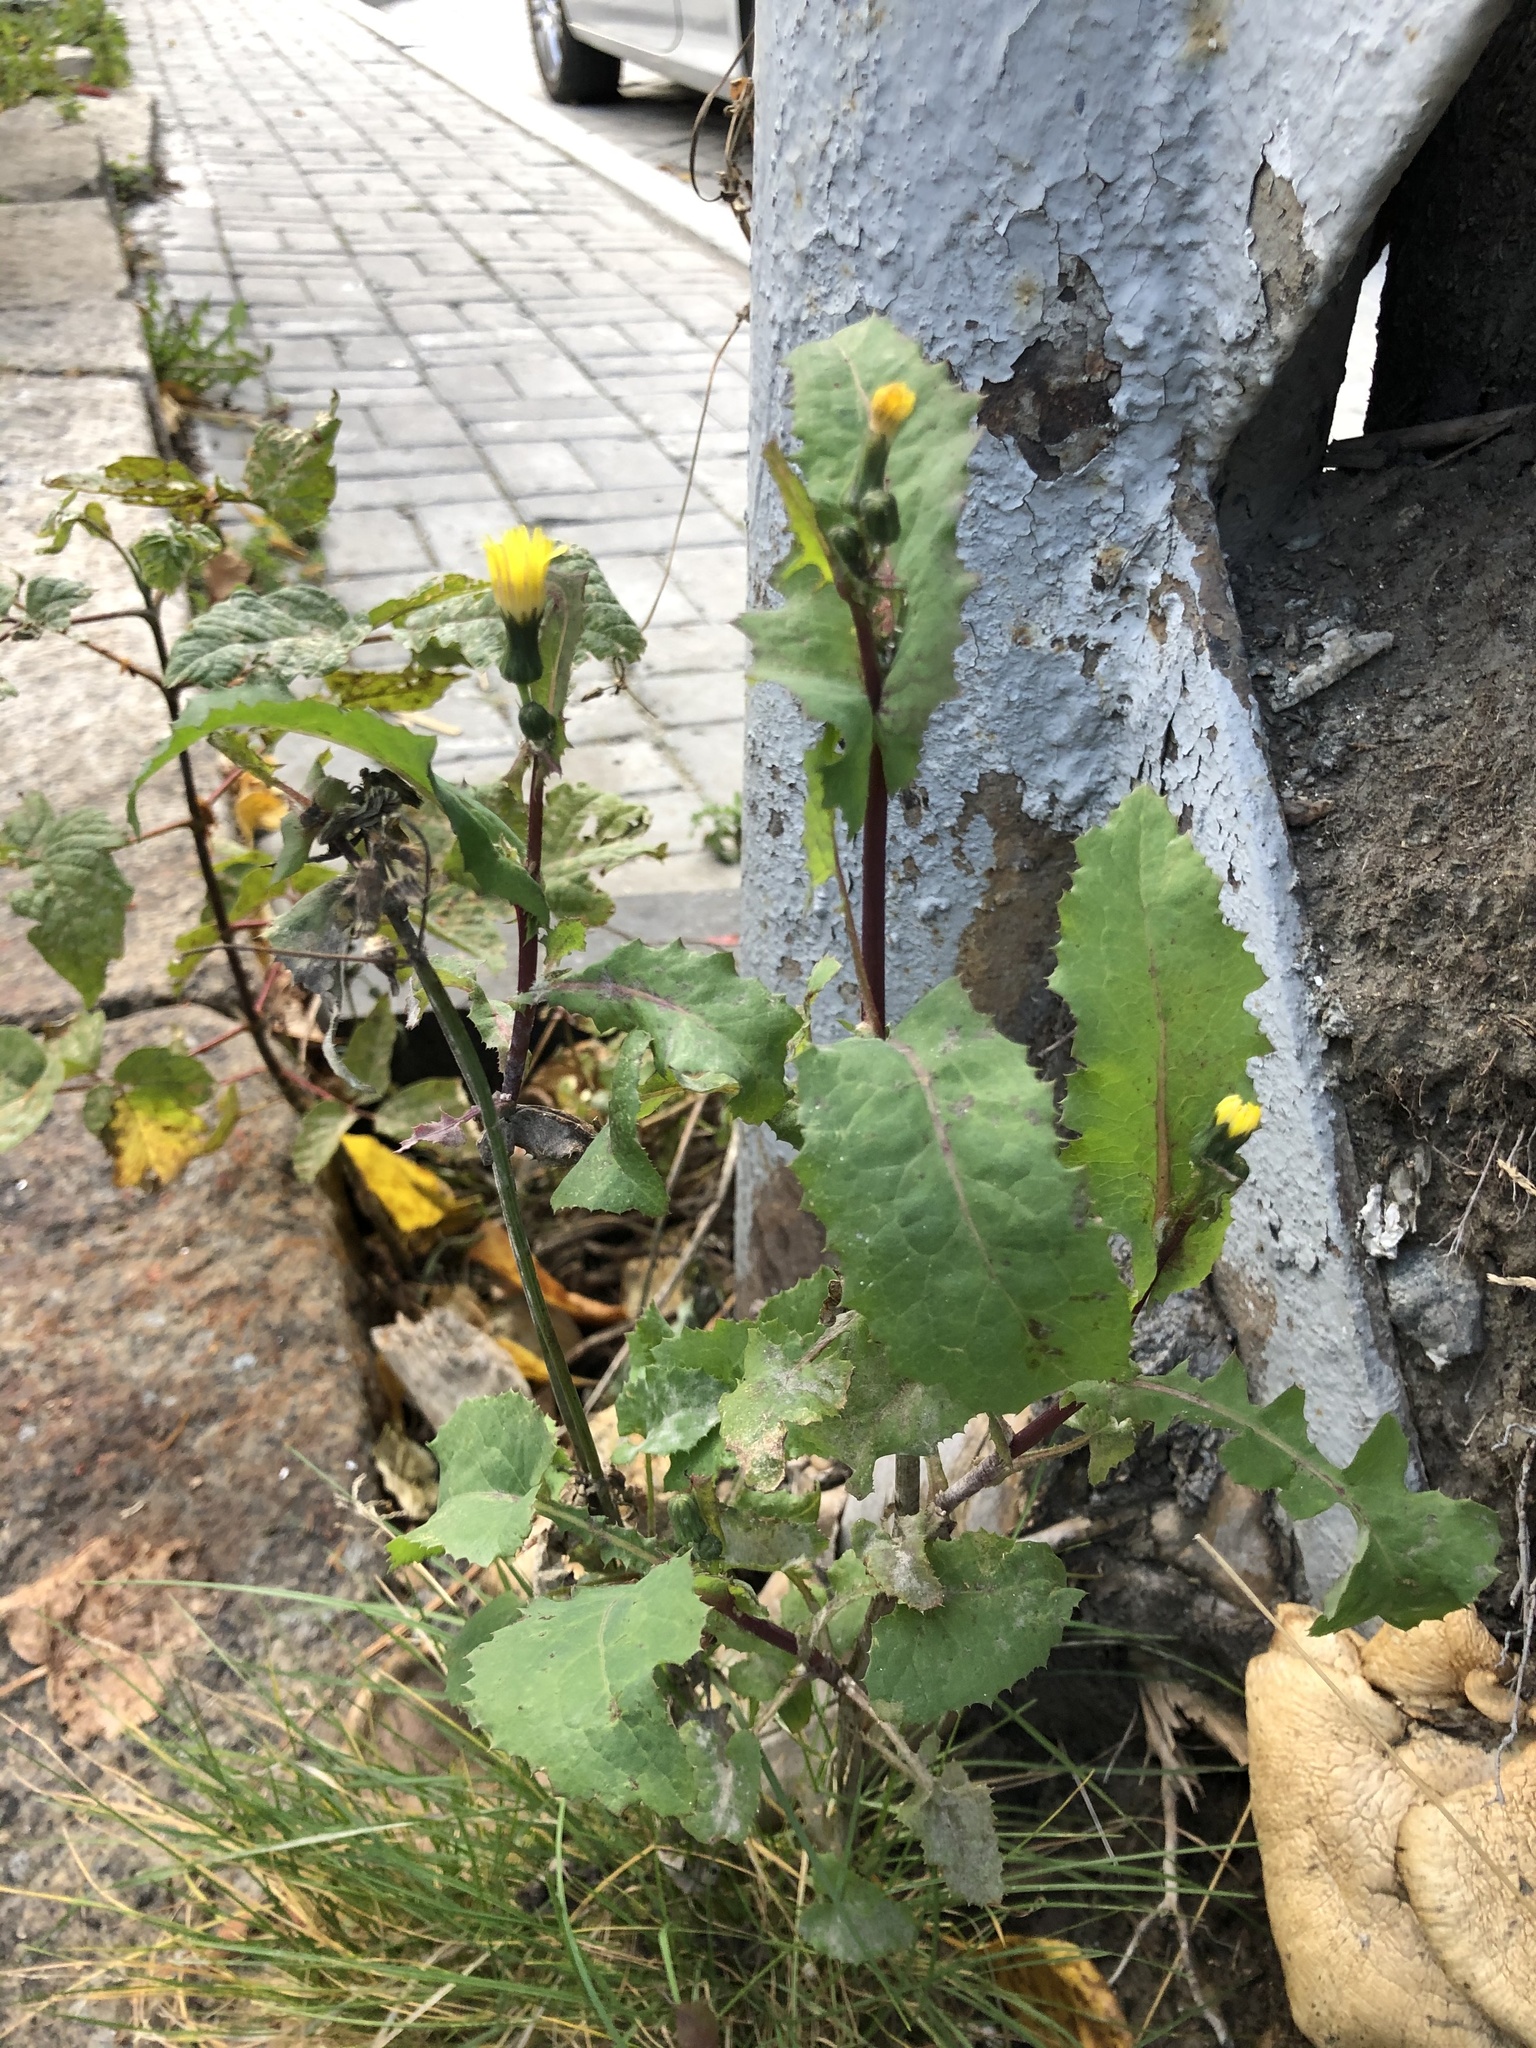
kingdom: Plantae
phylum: Tracheophyta
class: Magnoliopsida
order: Asterales
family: Asteraceae
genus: Sonchus
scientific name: Sonchus oleraceus
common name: Common sowthistle
